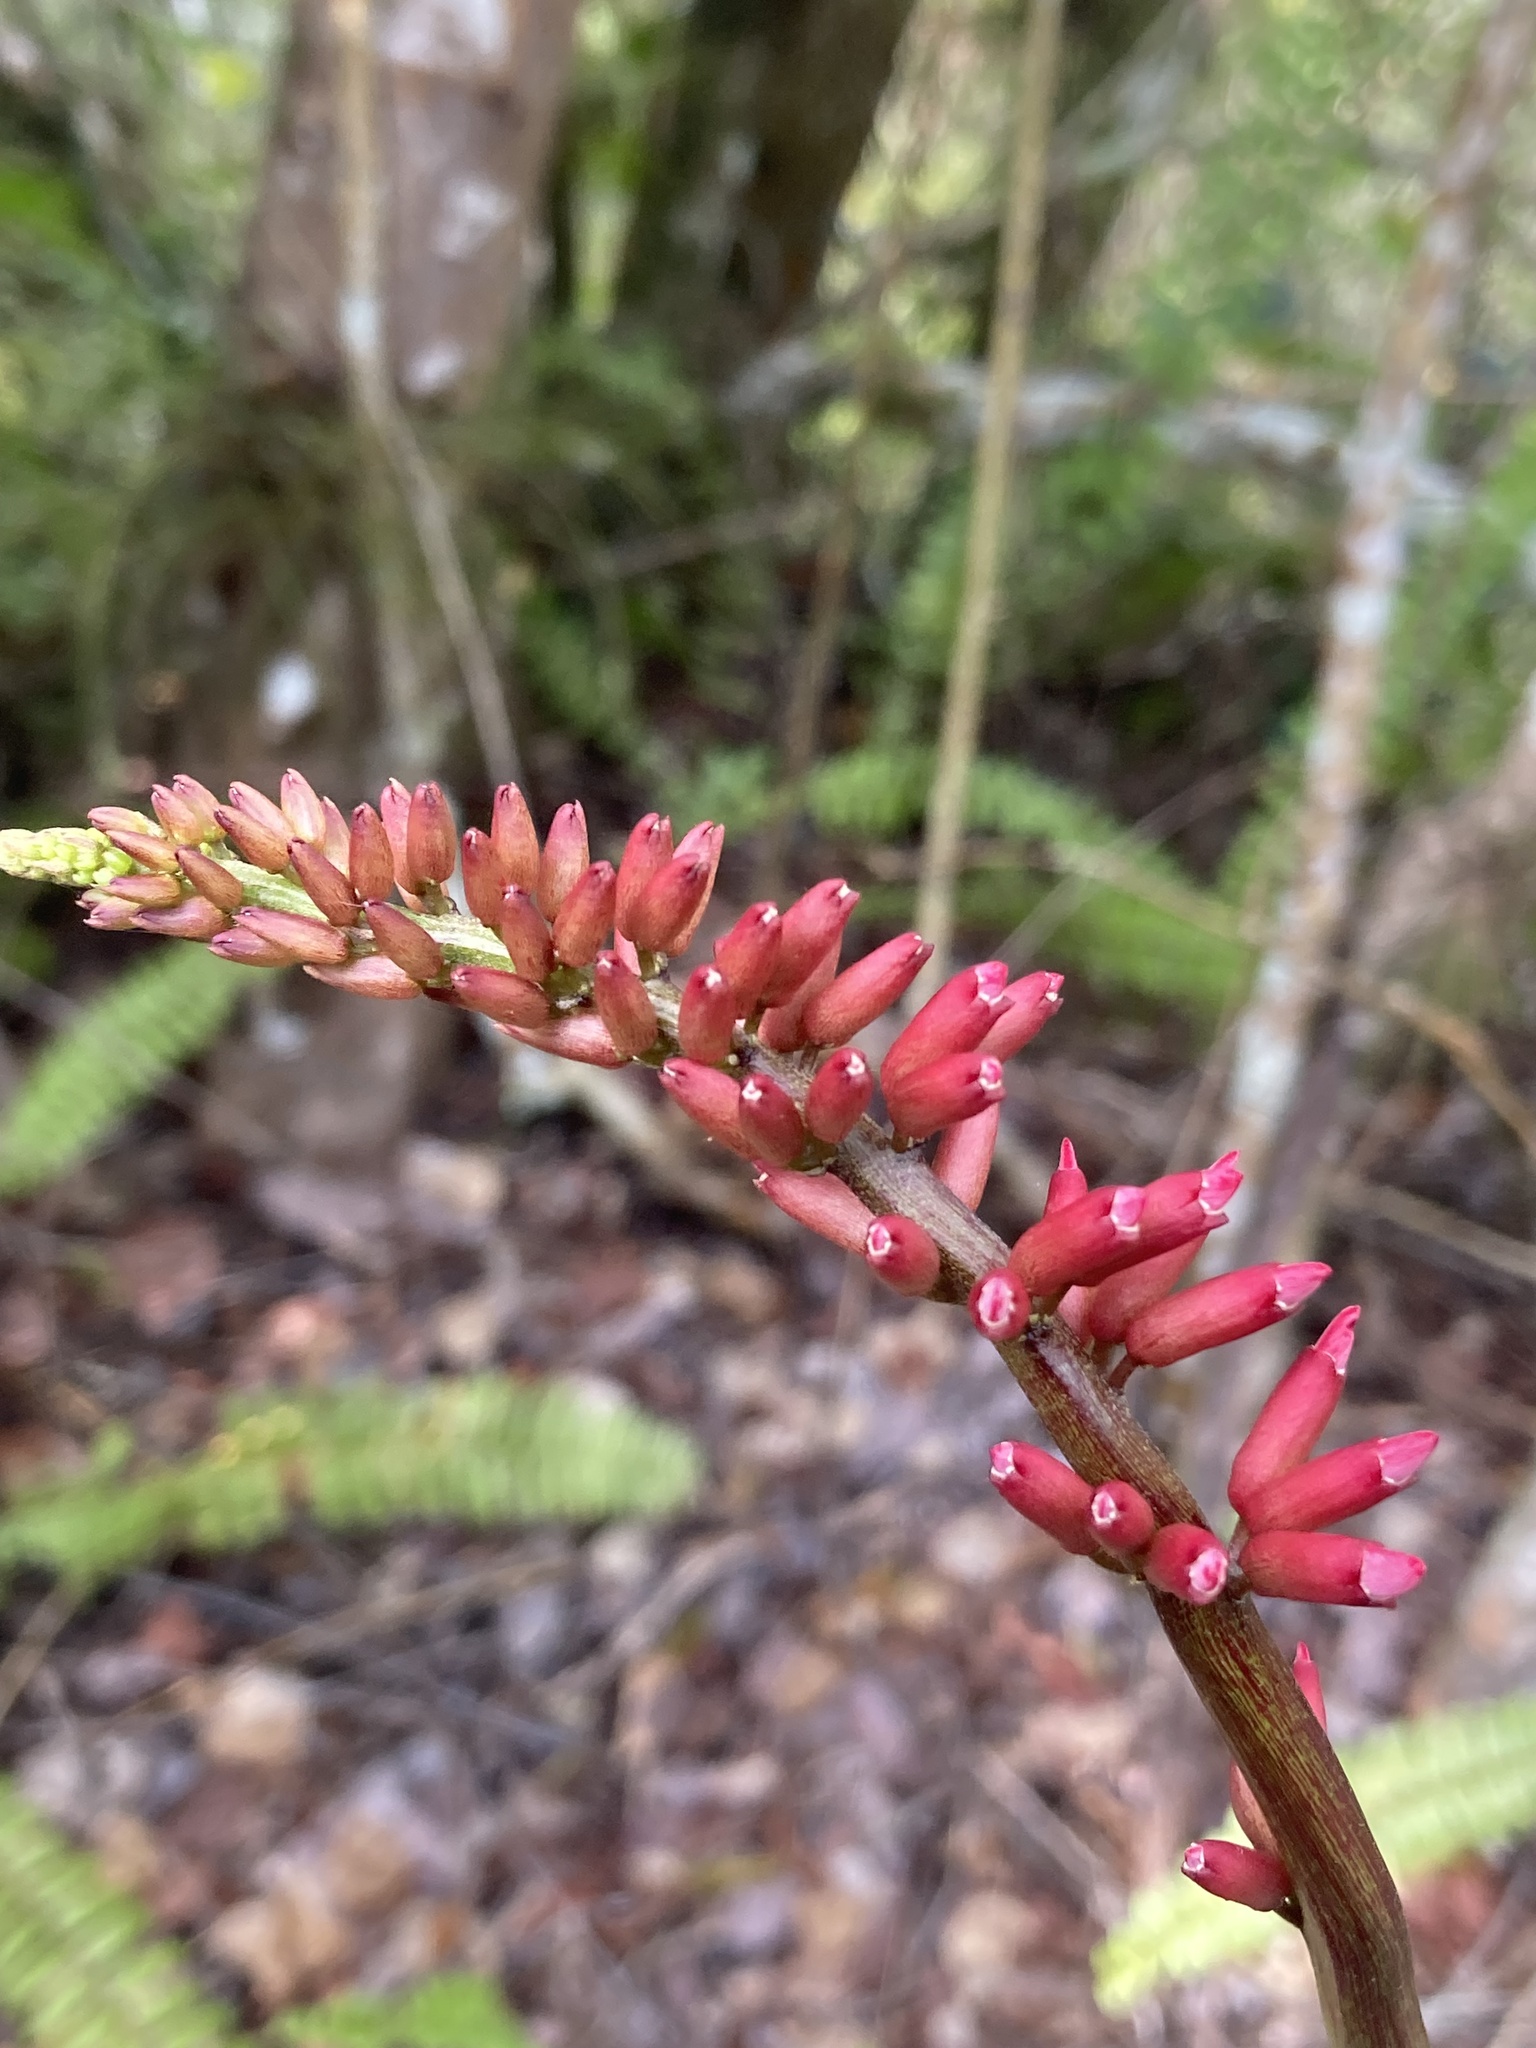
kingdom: Plantae
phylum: Tracheophyta
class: Magnoliopsida
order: Fabales
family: Fabaceae
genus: Erythrina
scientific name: Erythrina herbacea
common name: Coral-bean
